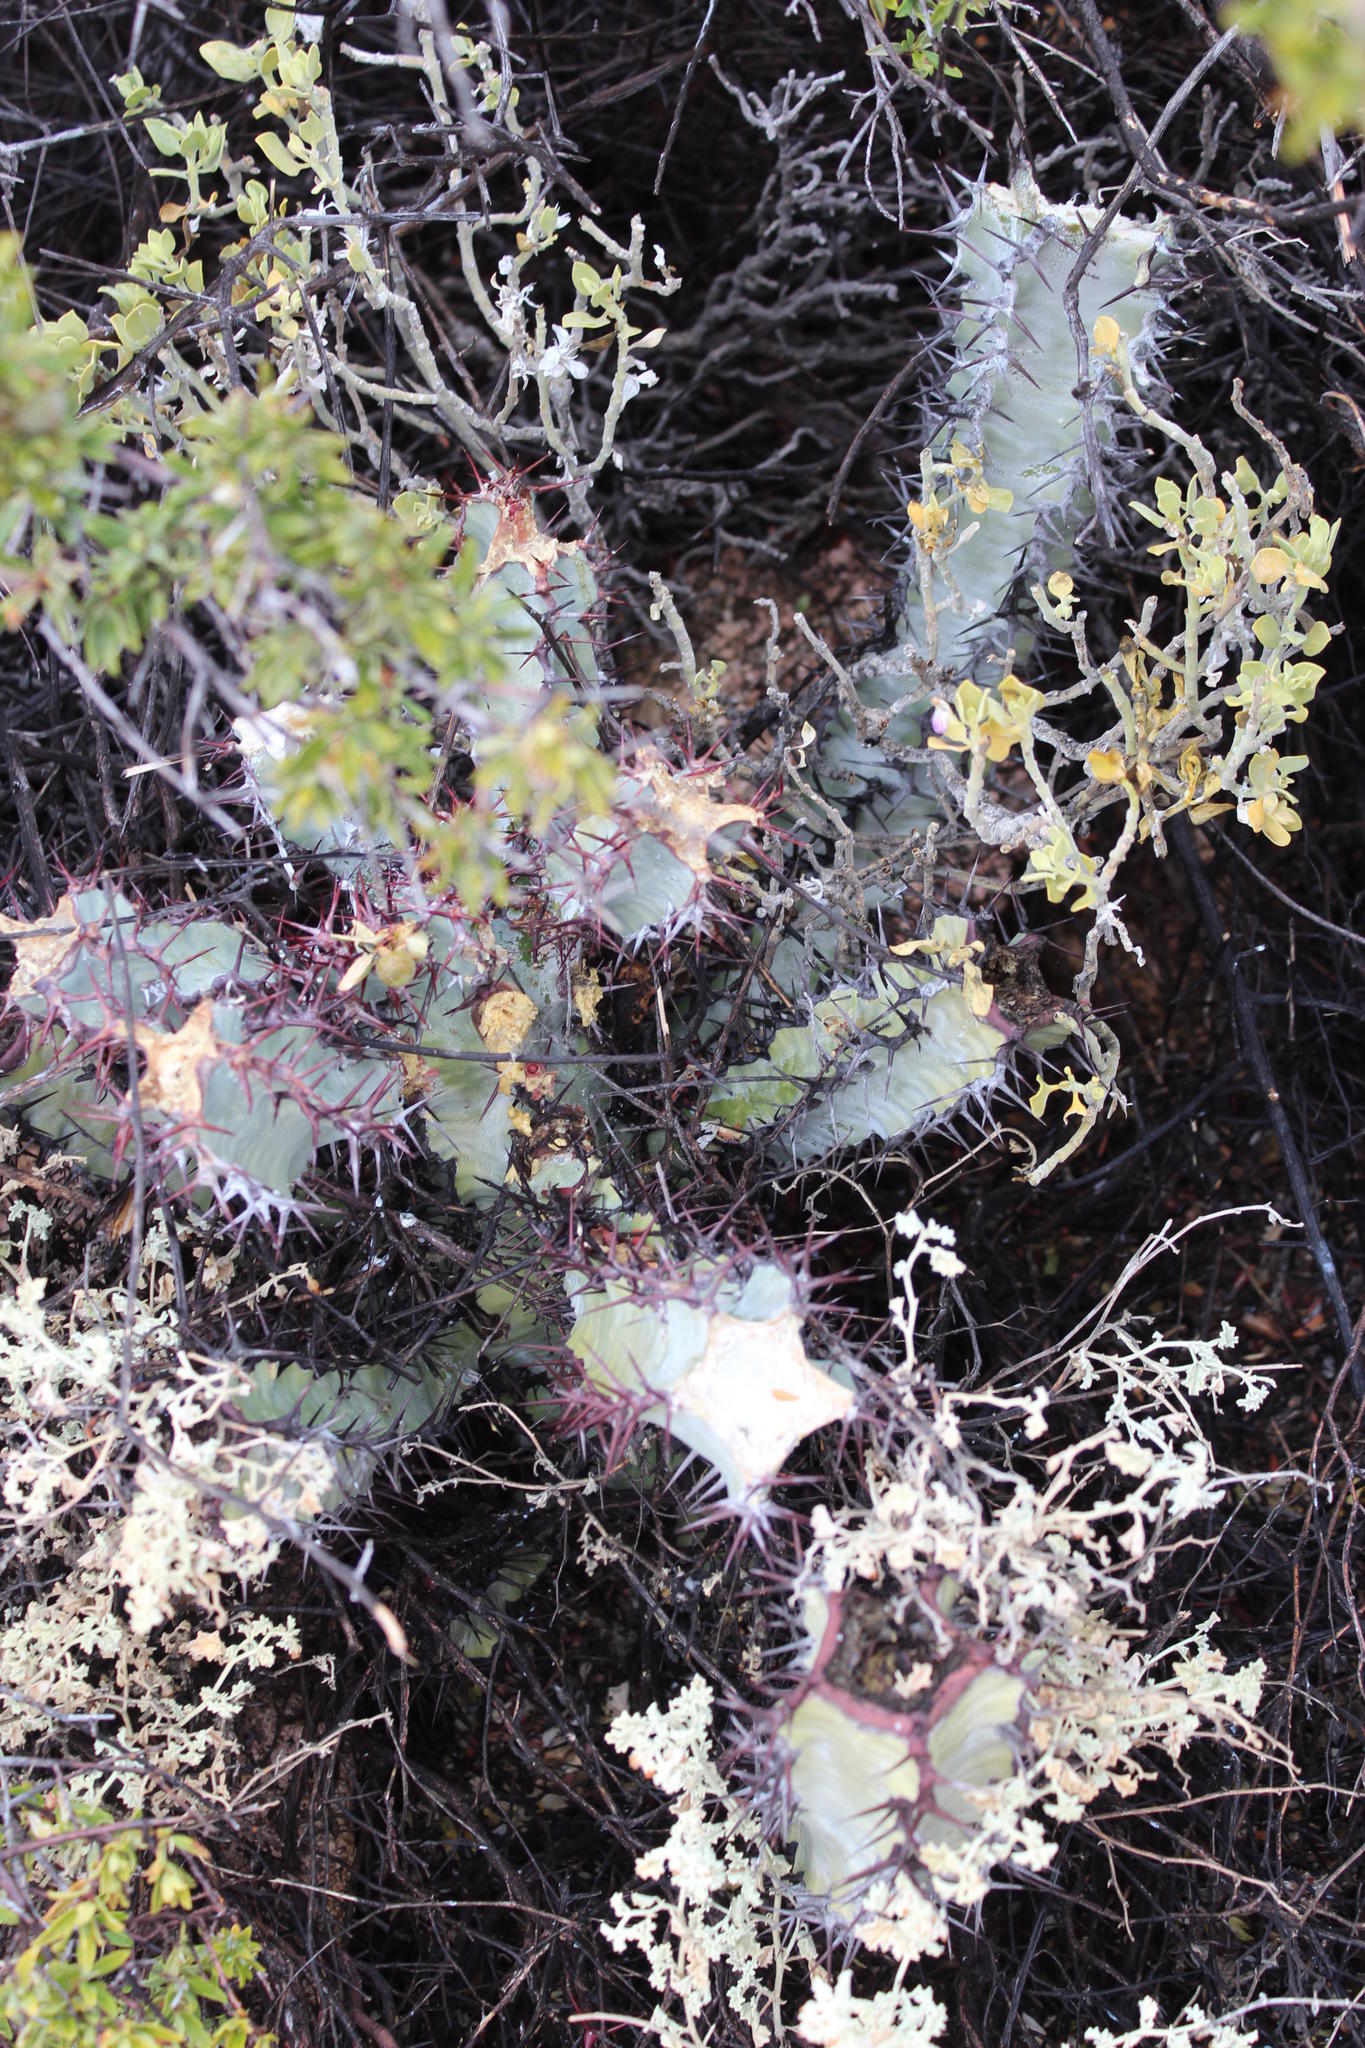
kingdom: Plantae
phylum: Tracheophyta
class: Magnoliopsida
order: Malpighiales
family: Euphorbiaceae
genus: Euphorbia
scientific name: Euphorbia virosa
